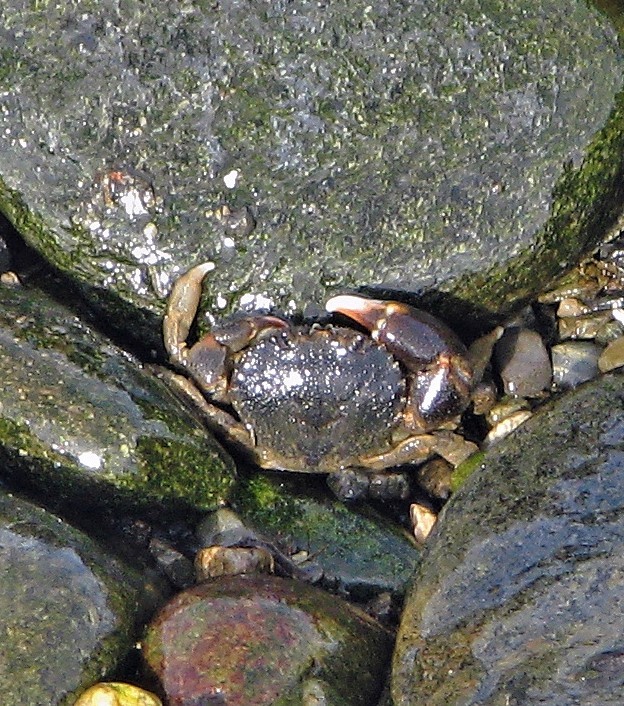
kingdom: Animalia
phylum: Arthropoda
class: Malacostraca
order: Decapoda
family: Belliidae
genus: Acanthocyclus
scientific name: Acanthocyclus albatrossis
